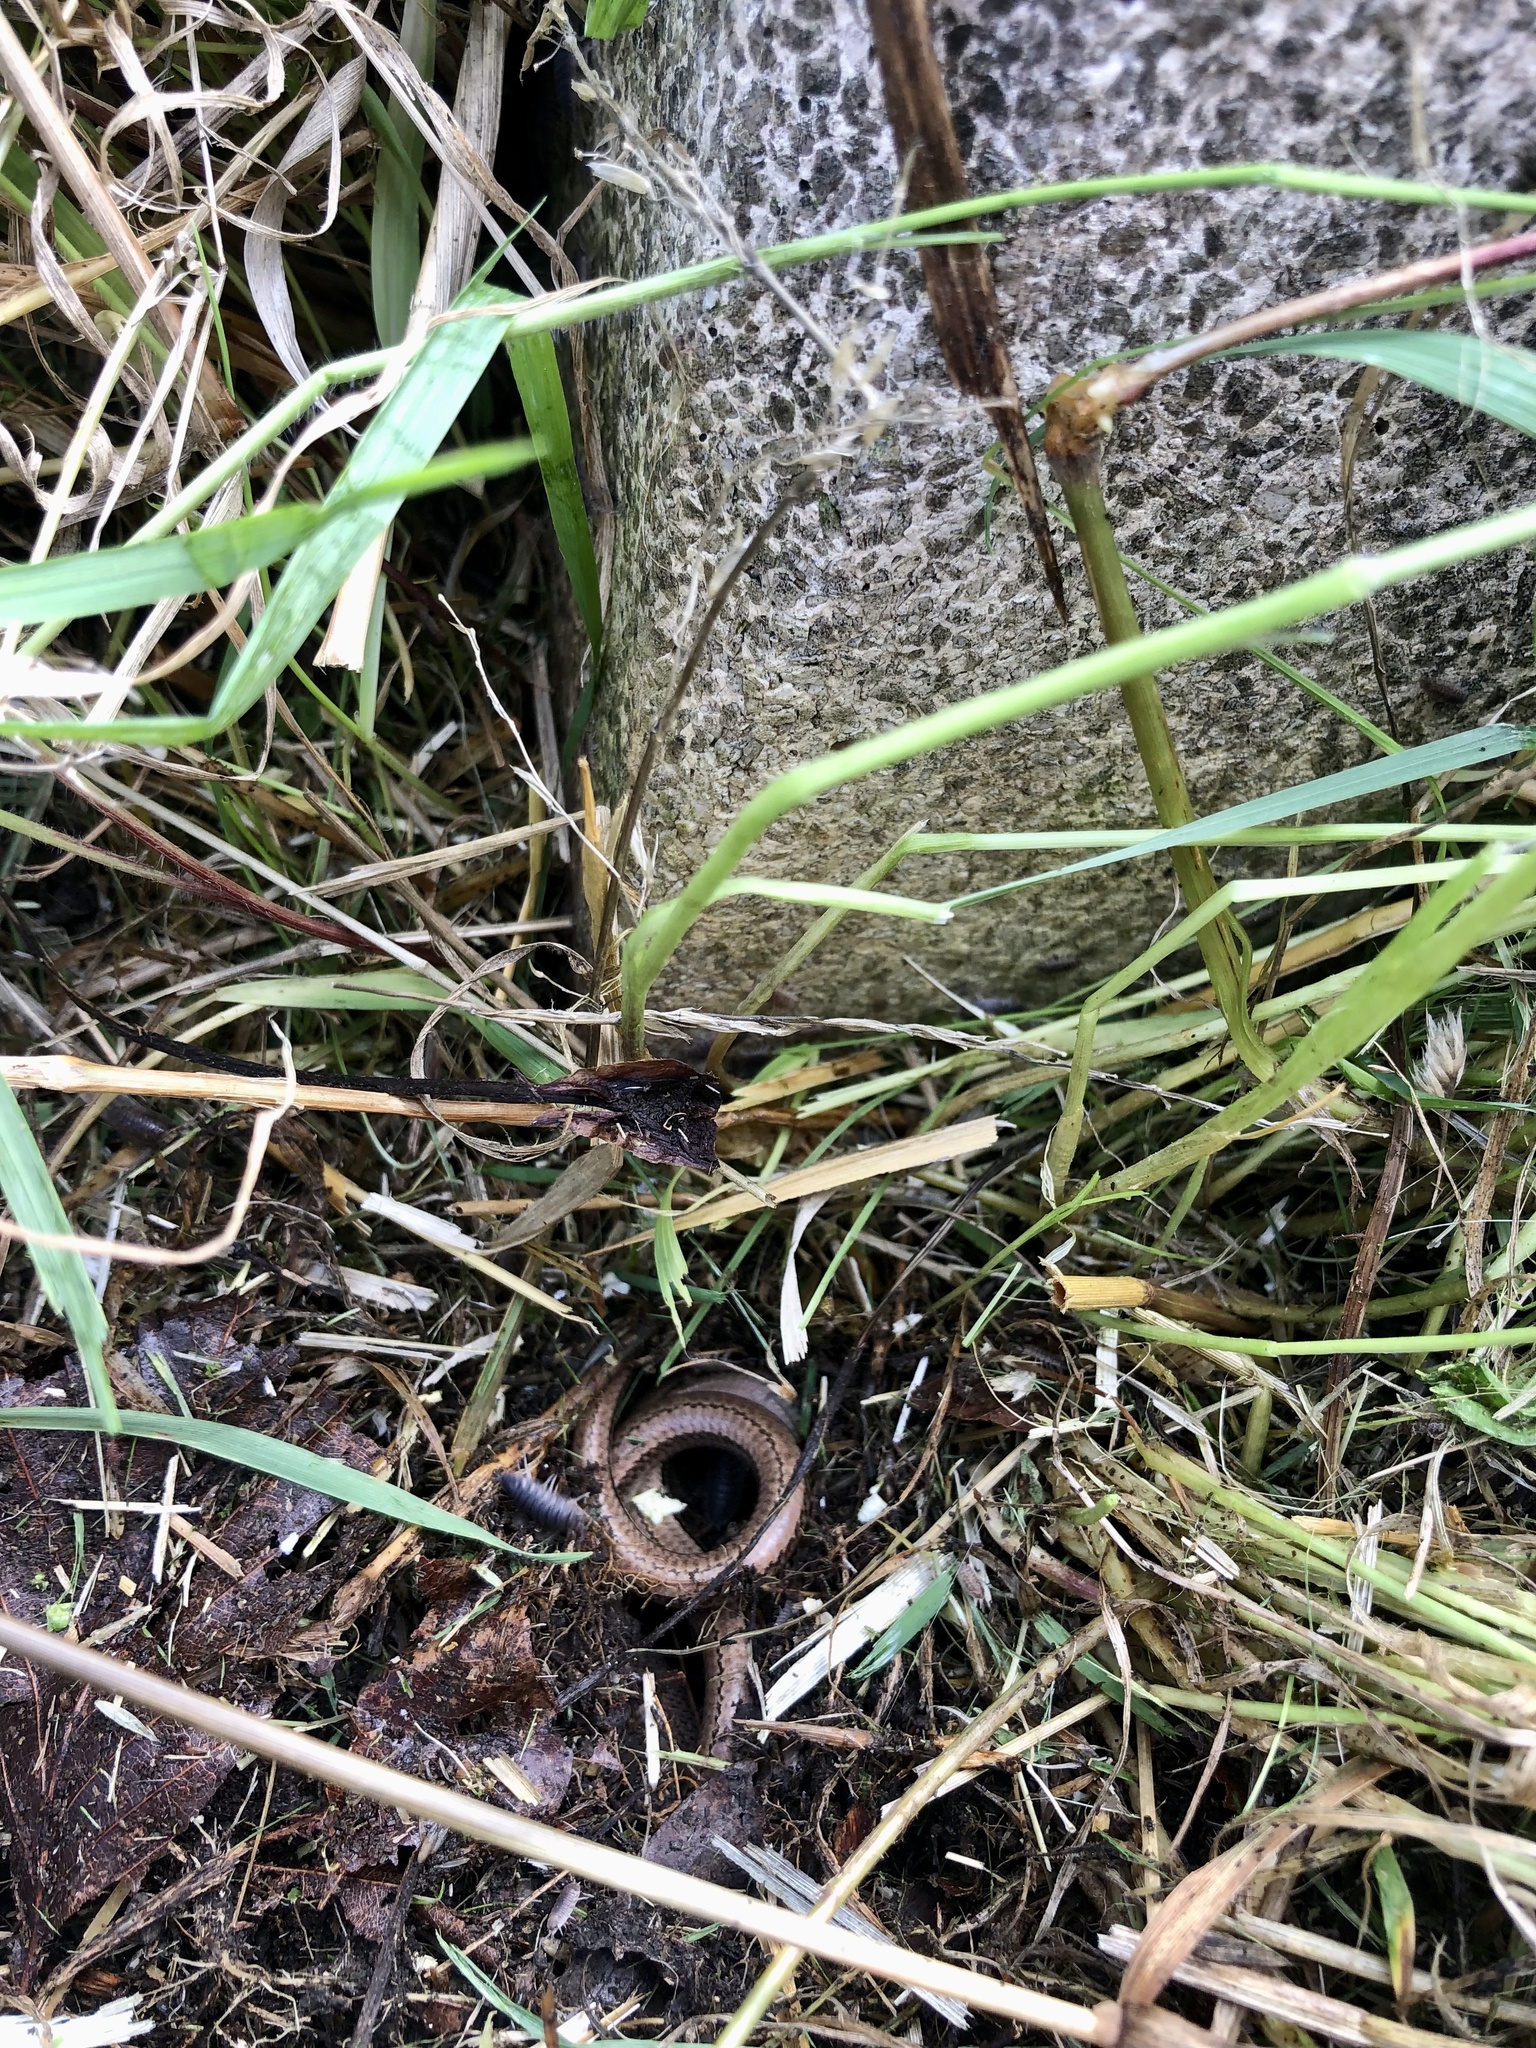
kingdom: Animalia
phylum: Chordata
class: Squamata
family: Anguidae
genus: Anguis
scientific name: Anguis fragilis
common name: Slow worm
